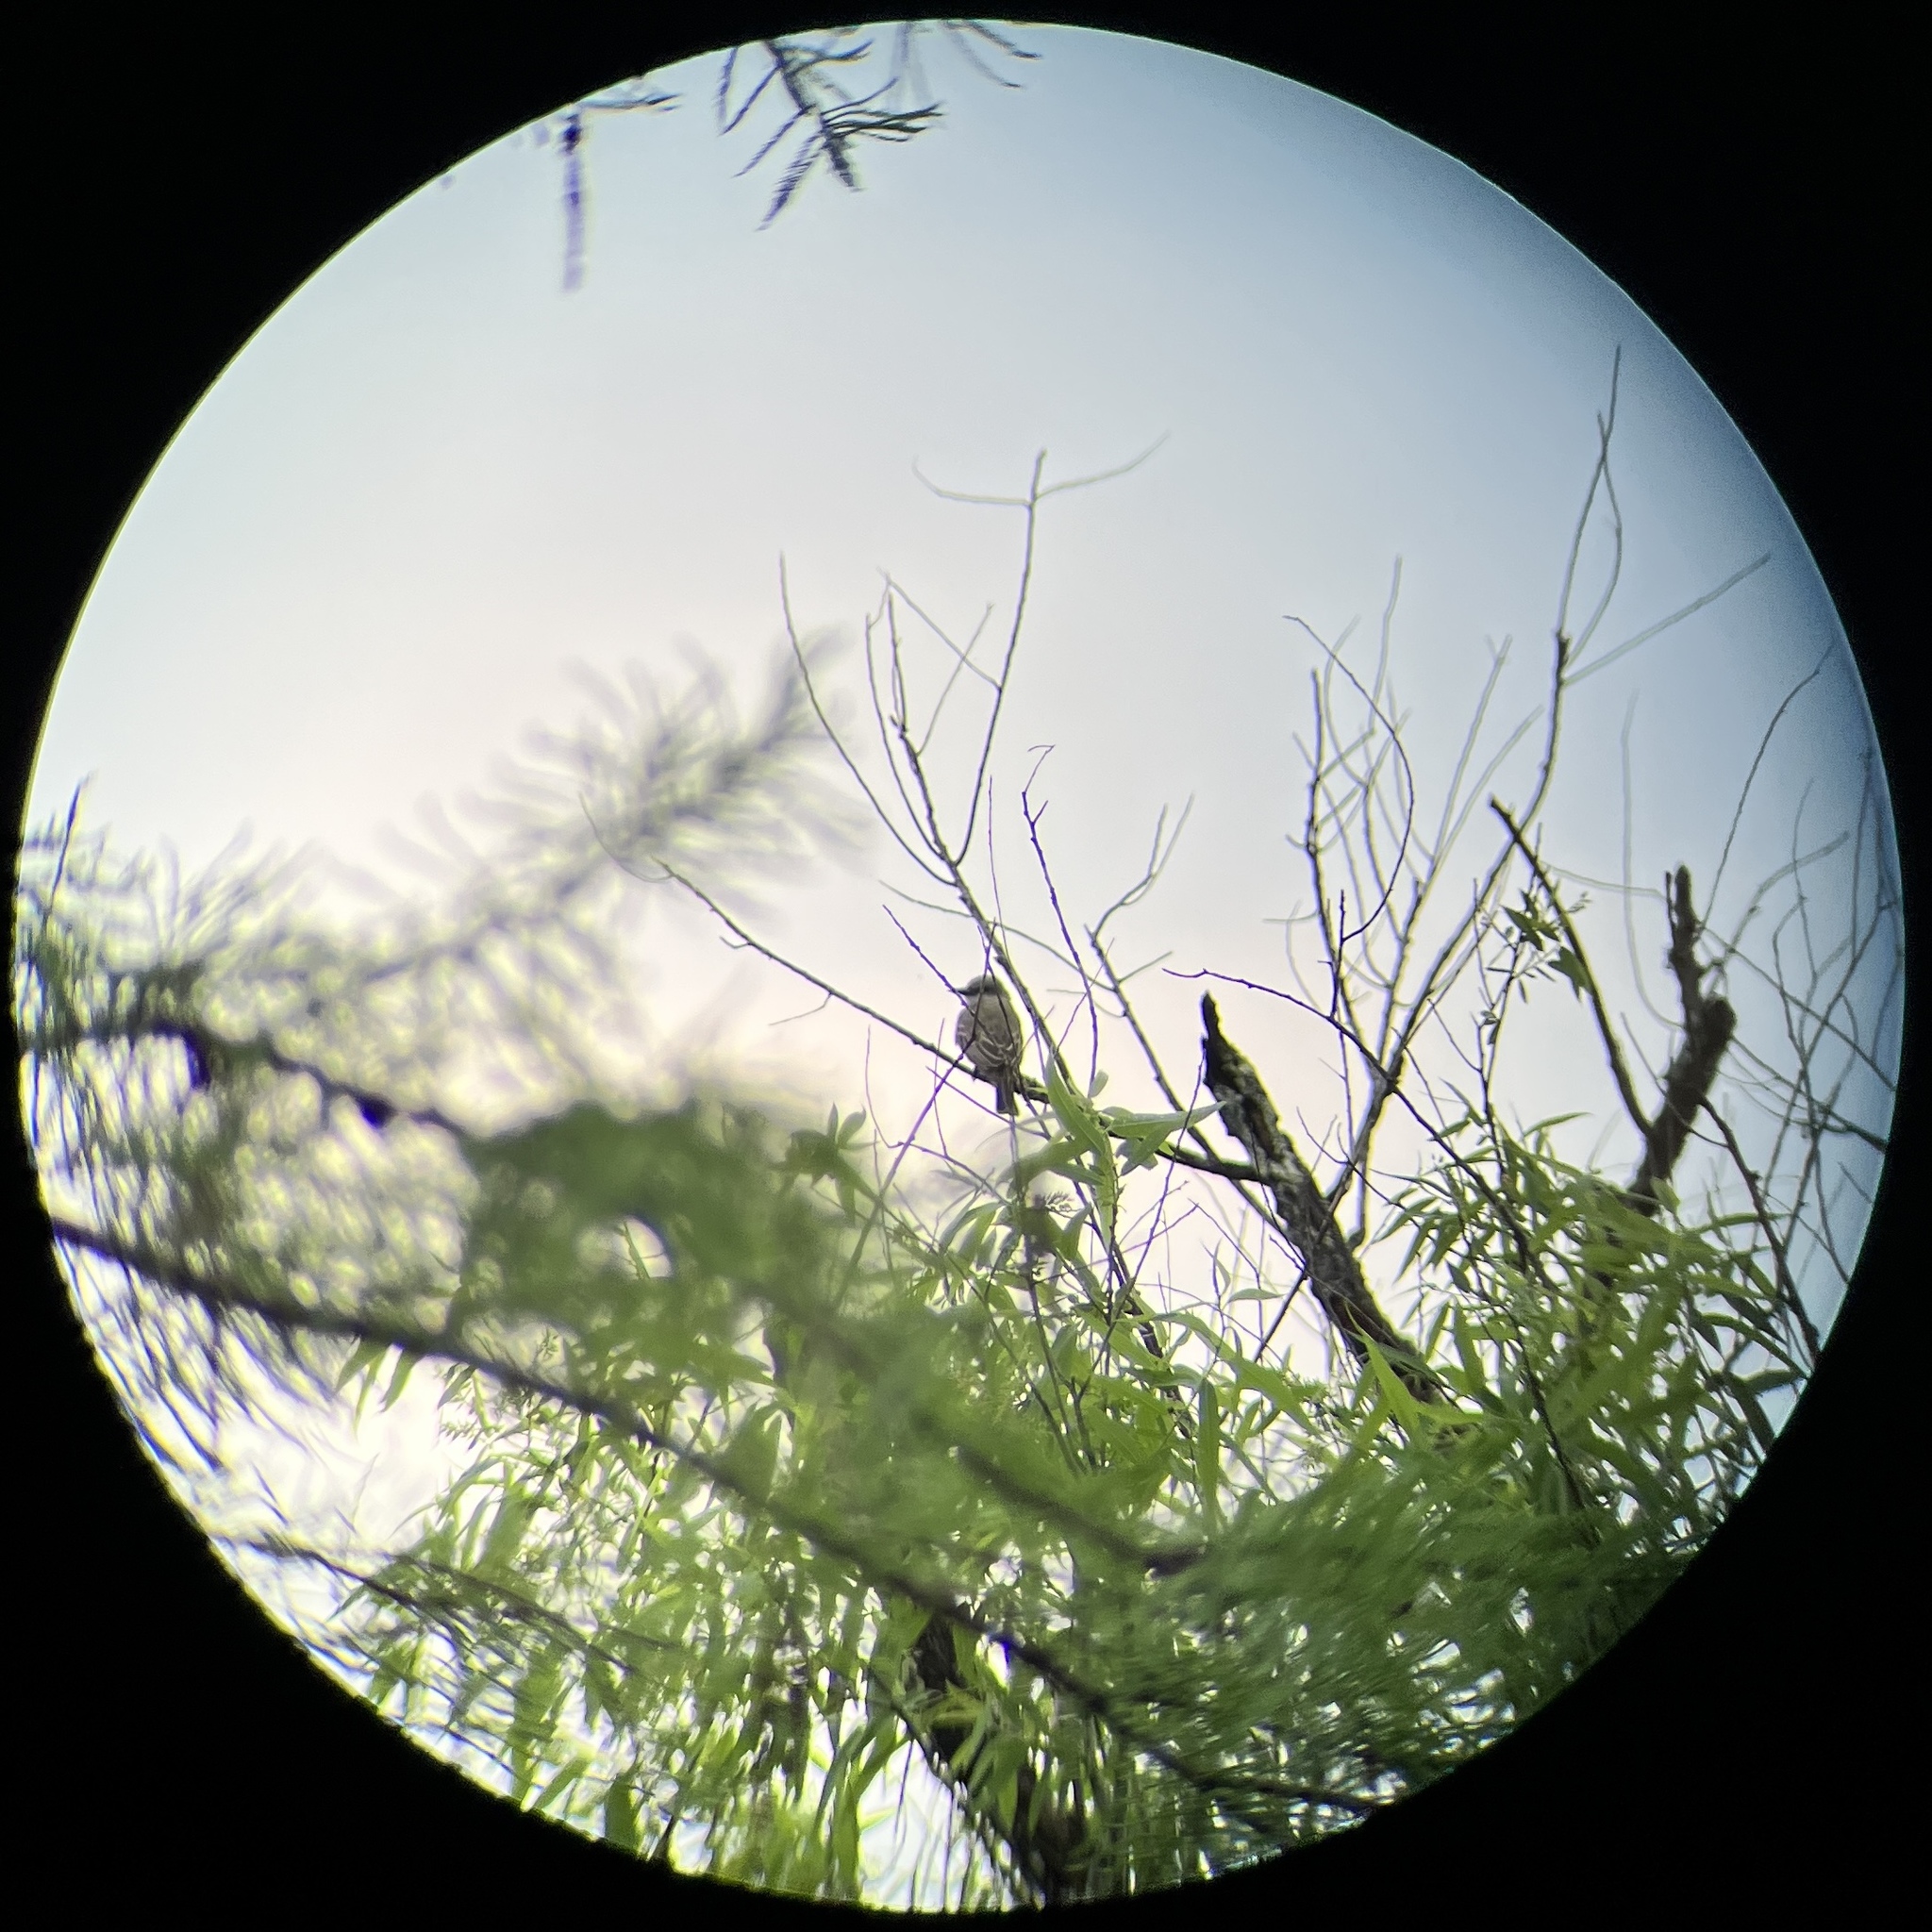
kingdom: Animalia
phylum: Chordata
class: Aves
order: Passeriformes
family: Tyrannidae
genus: Tyrannus
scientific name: Tyrannus melancholicus
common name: Tropical kingbird
